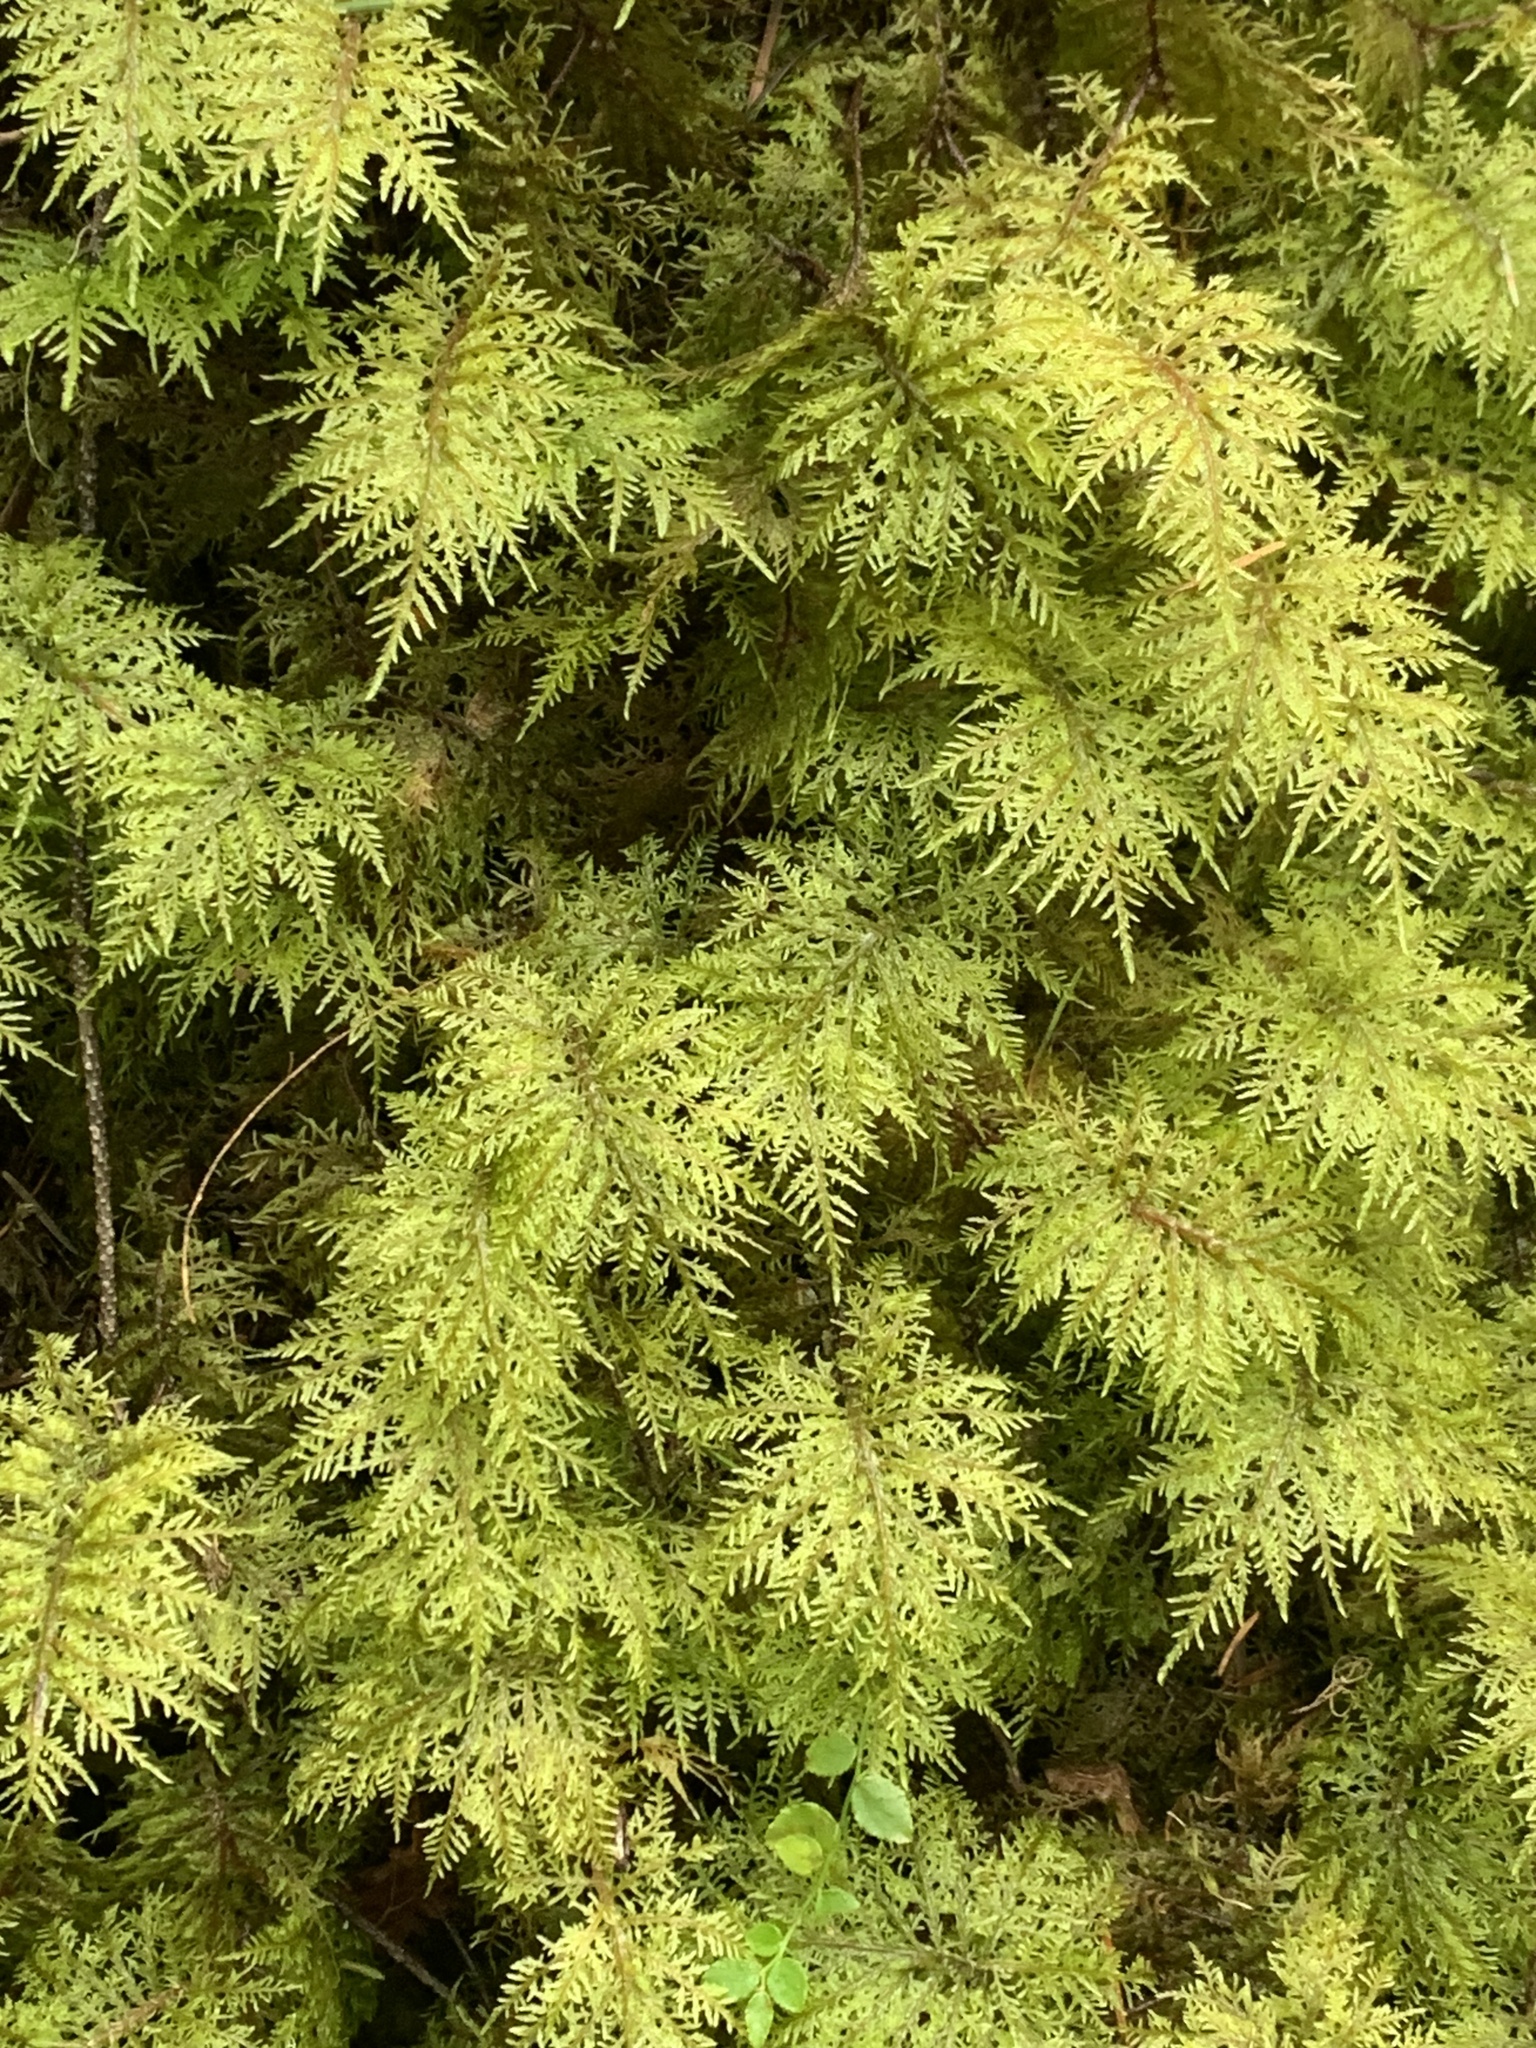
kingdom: Plantae
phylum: Bryophyta
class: Bryopsida
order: Hypnales
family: Hylocomiaceae
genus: Hylocomium
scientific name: Hylocomium splendens
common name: Stairstep moss
